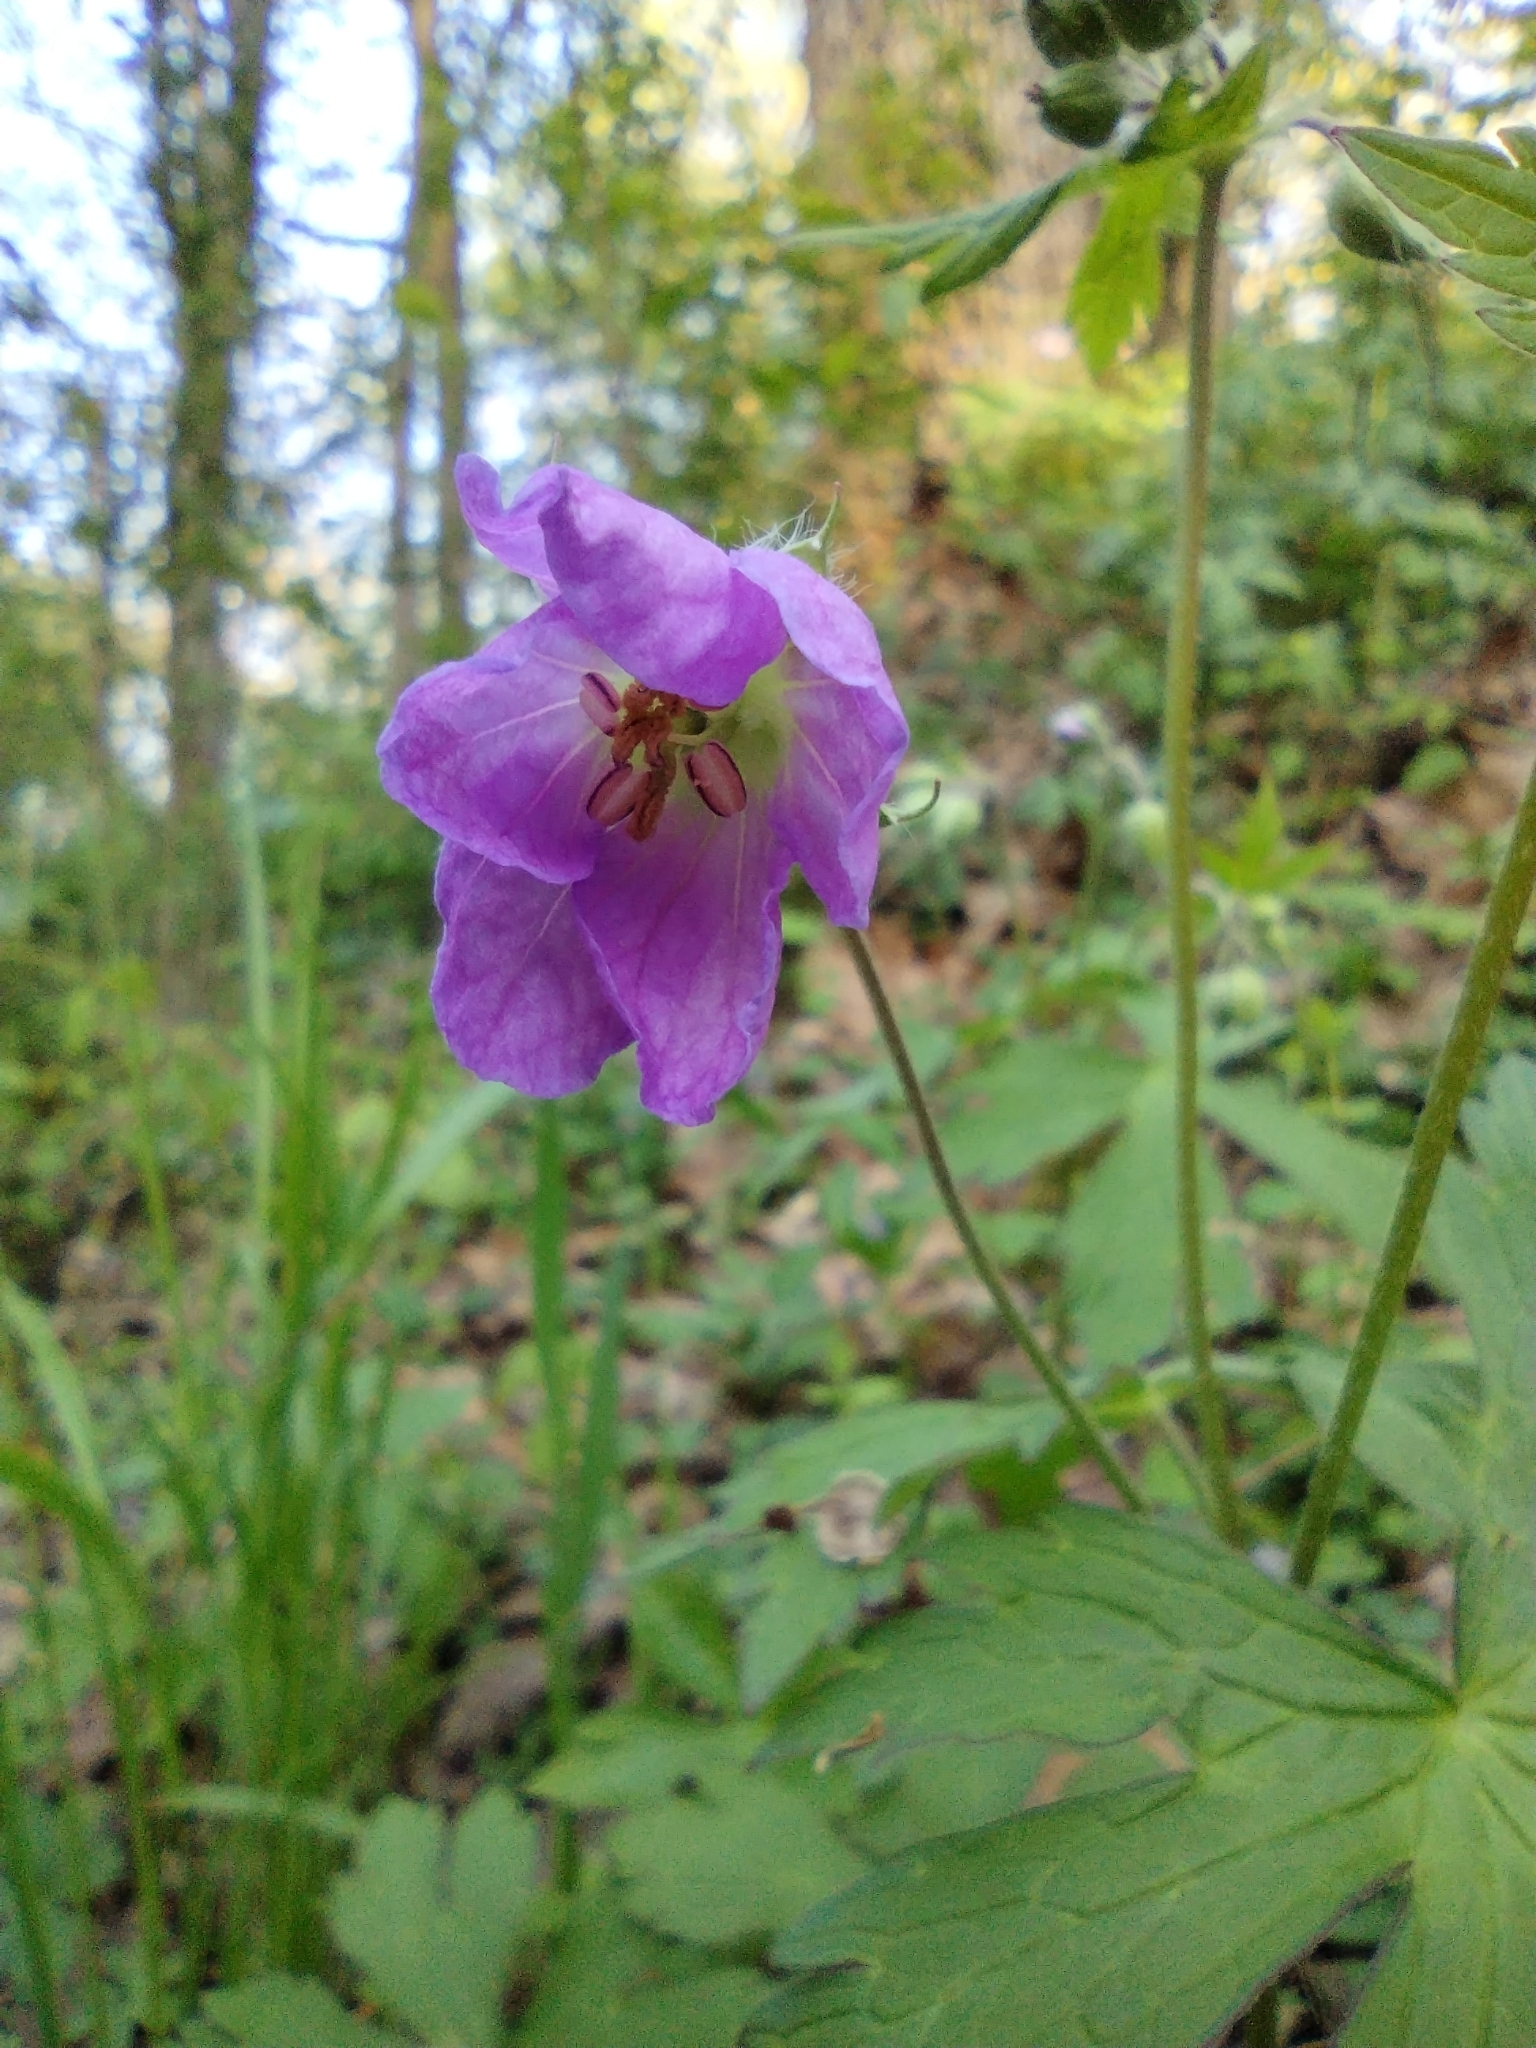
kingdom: Plantae
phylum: Tracheophyta
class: Magnoliopsida
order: Geraniales
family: Geraniaceae
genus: Geranium
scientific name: Geranium maculatum
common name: Spotted geranium
